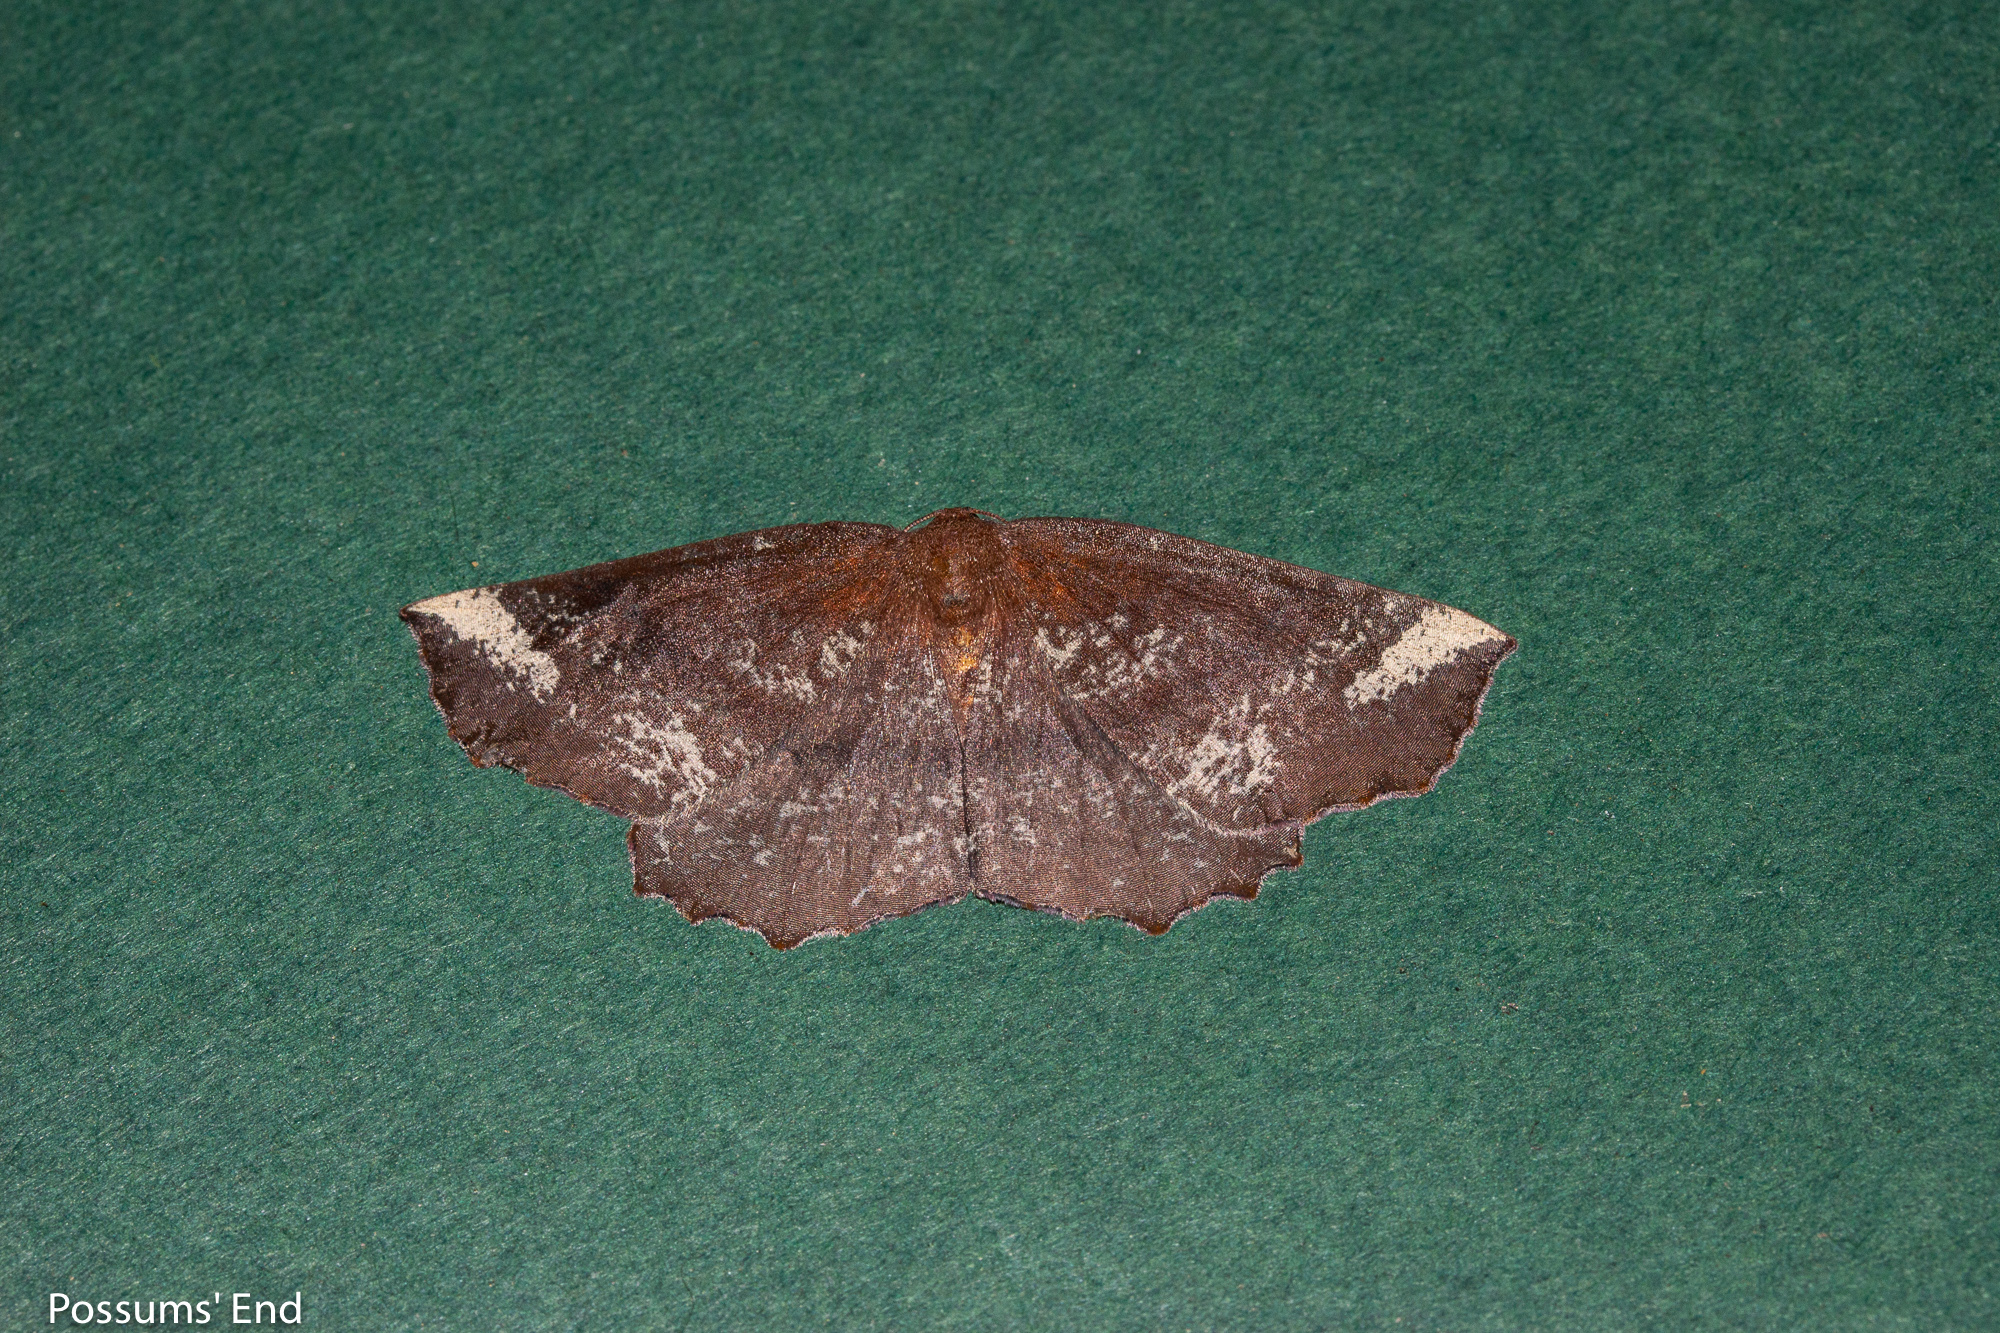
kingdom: Animalia
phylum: Arthropoda
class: Insecta
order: Lepidoptera
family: Geometridae
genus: Xyridacma
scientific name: Xyridacma ustaria
